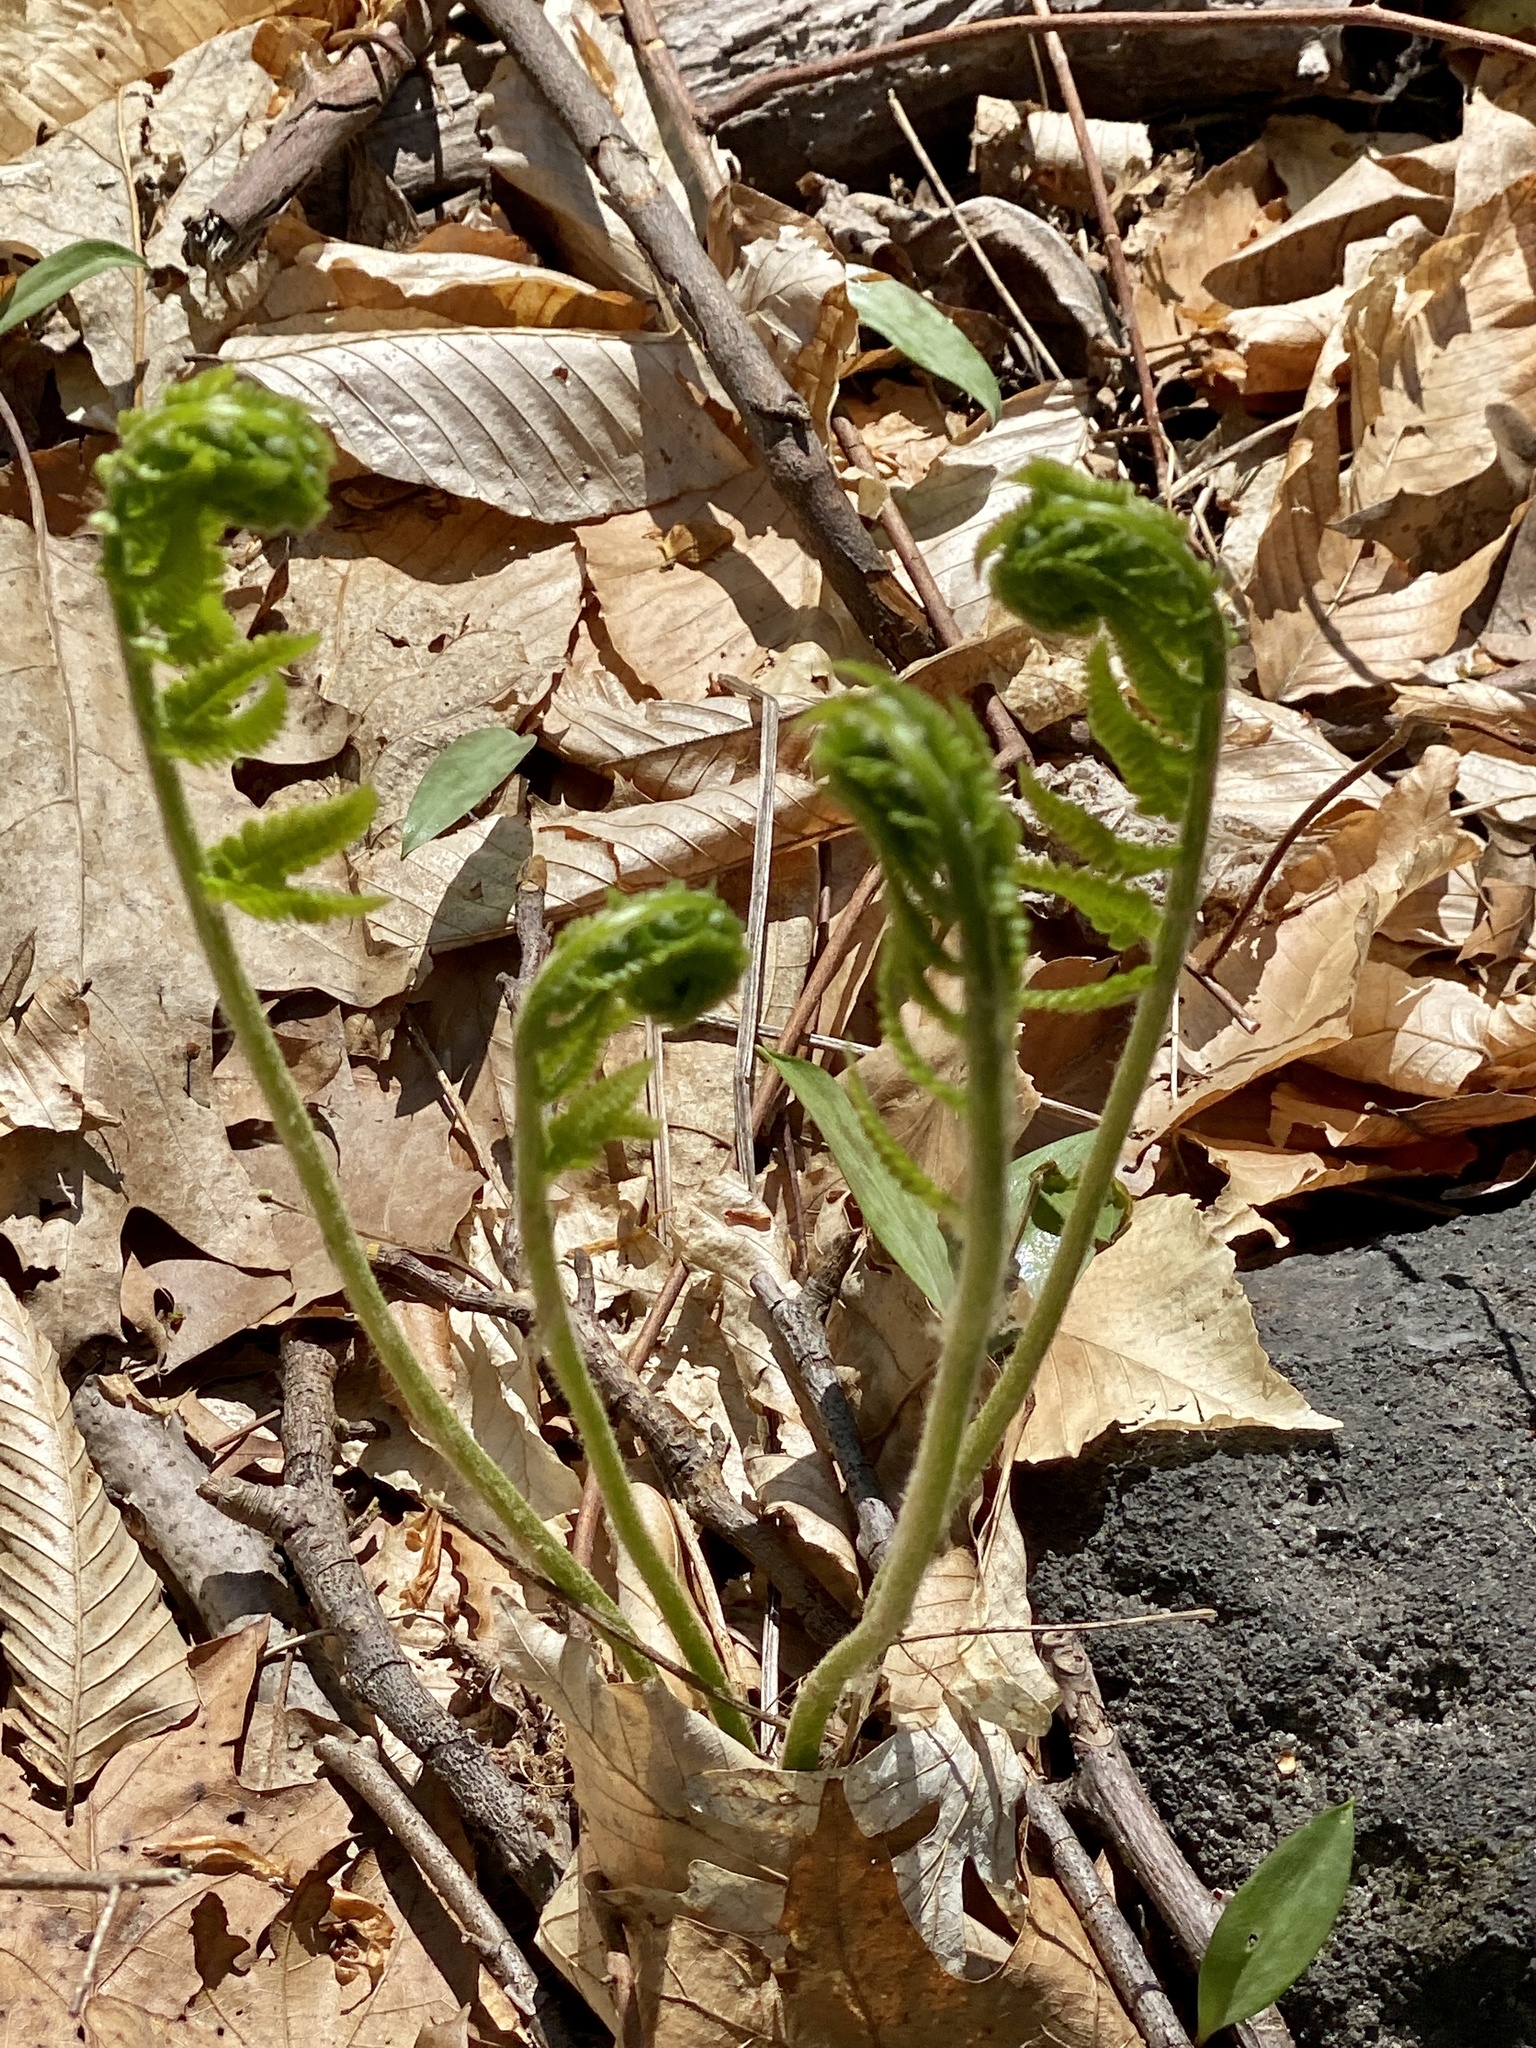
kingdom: Plantae
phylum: Tracheophyta
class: Polypodiopsida
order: Osmundales
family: Osmundaceae
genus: Osmundastrum
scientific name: Osmundastrum cinnamomeum
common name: Cinnamon fern
